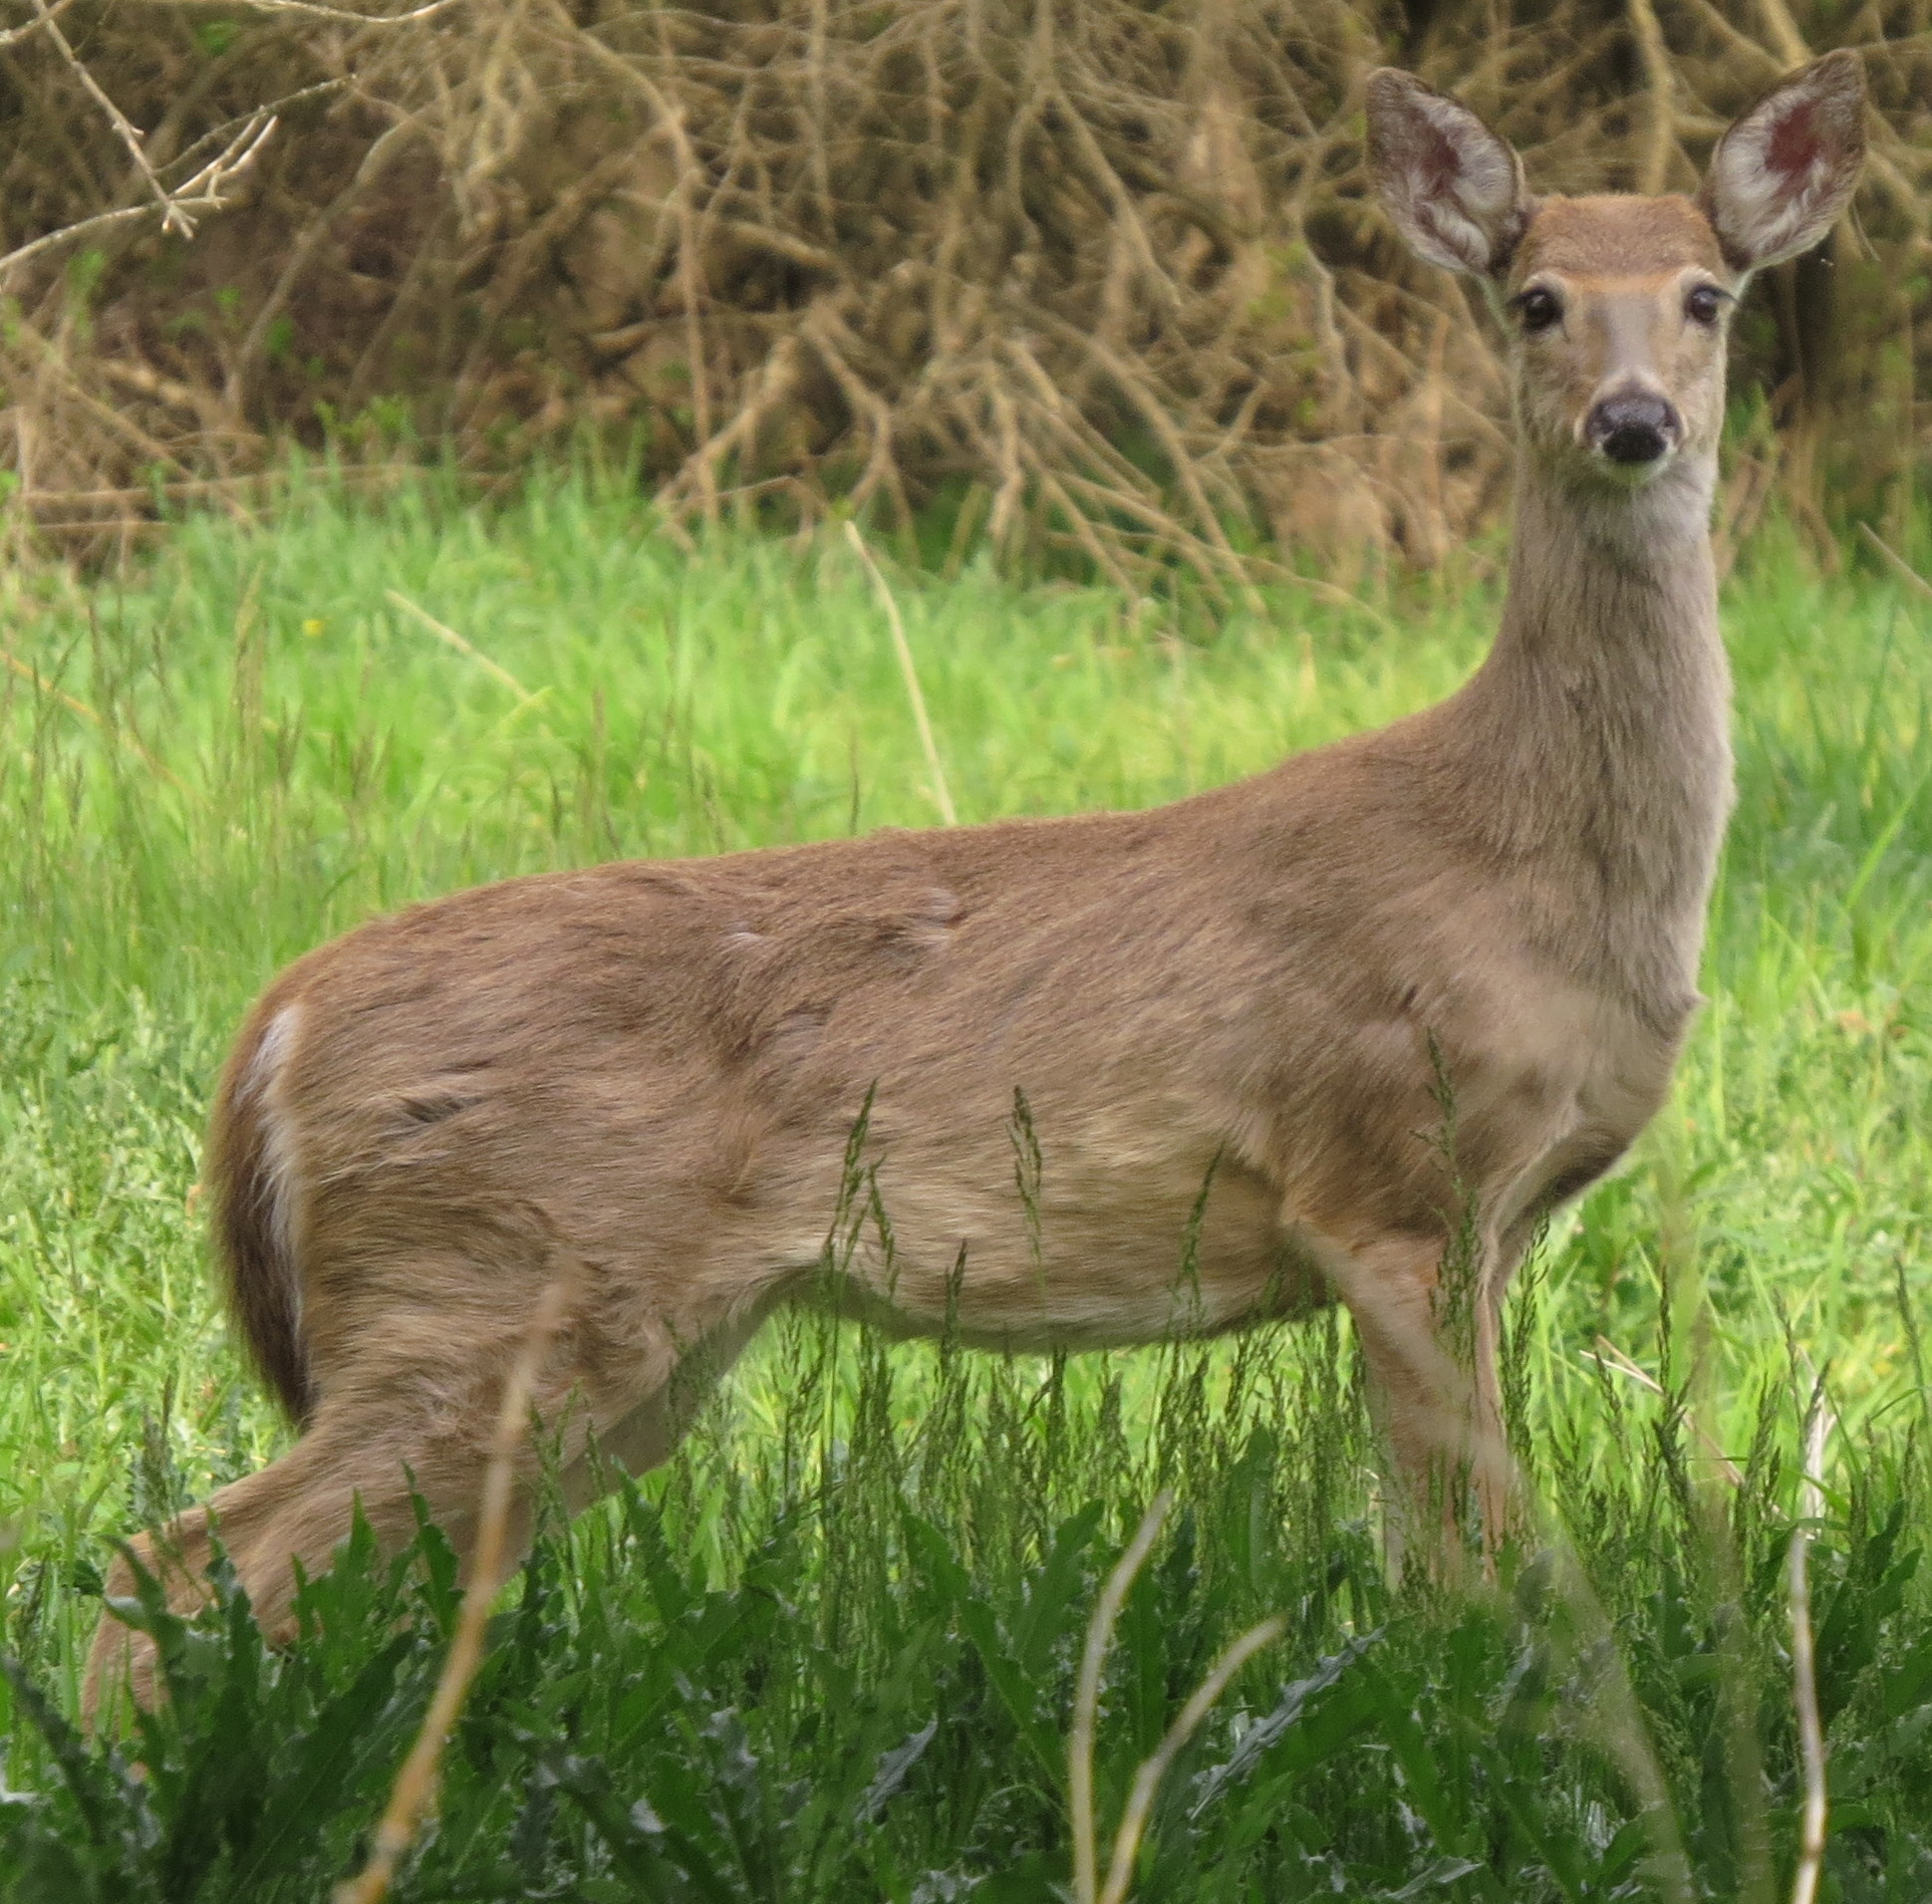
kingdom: Animalia
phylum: Chordata
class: Mammalia
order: Artiodactyla
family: Cervidae
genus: Odocoileus
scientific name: Odocoileus virginianus
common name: White-tailed deer
